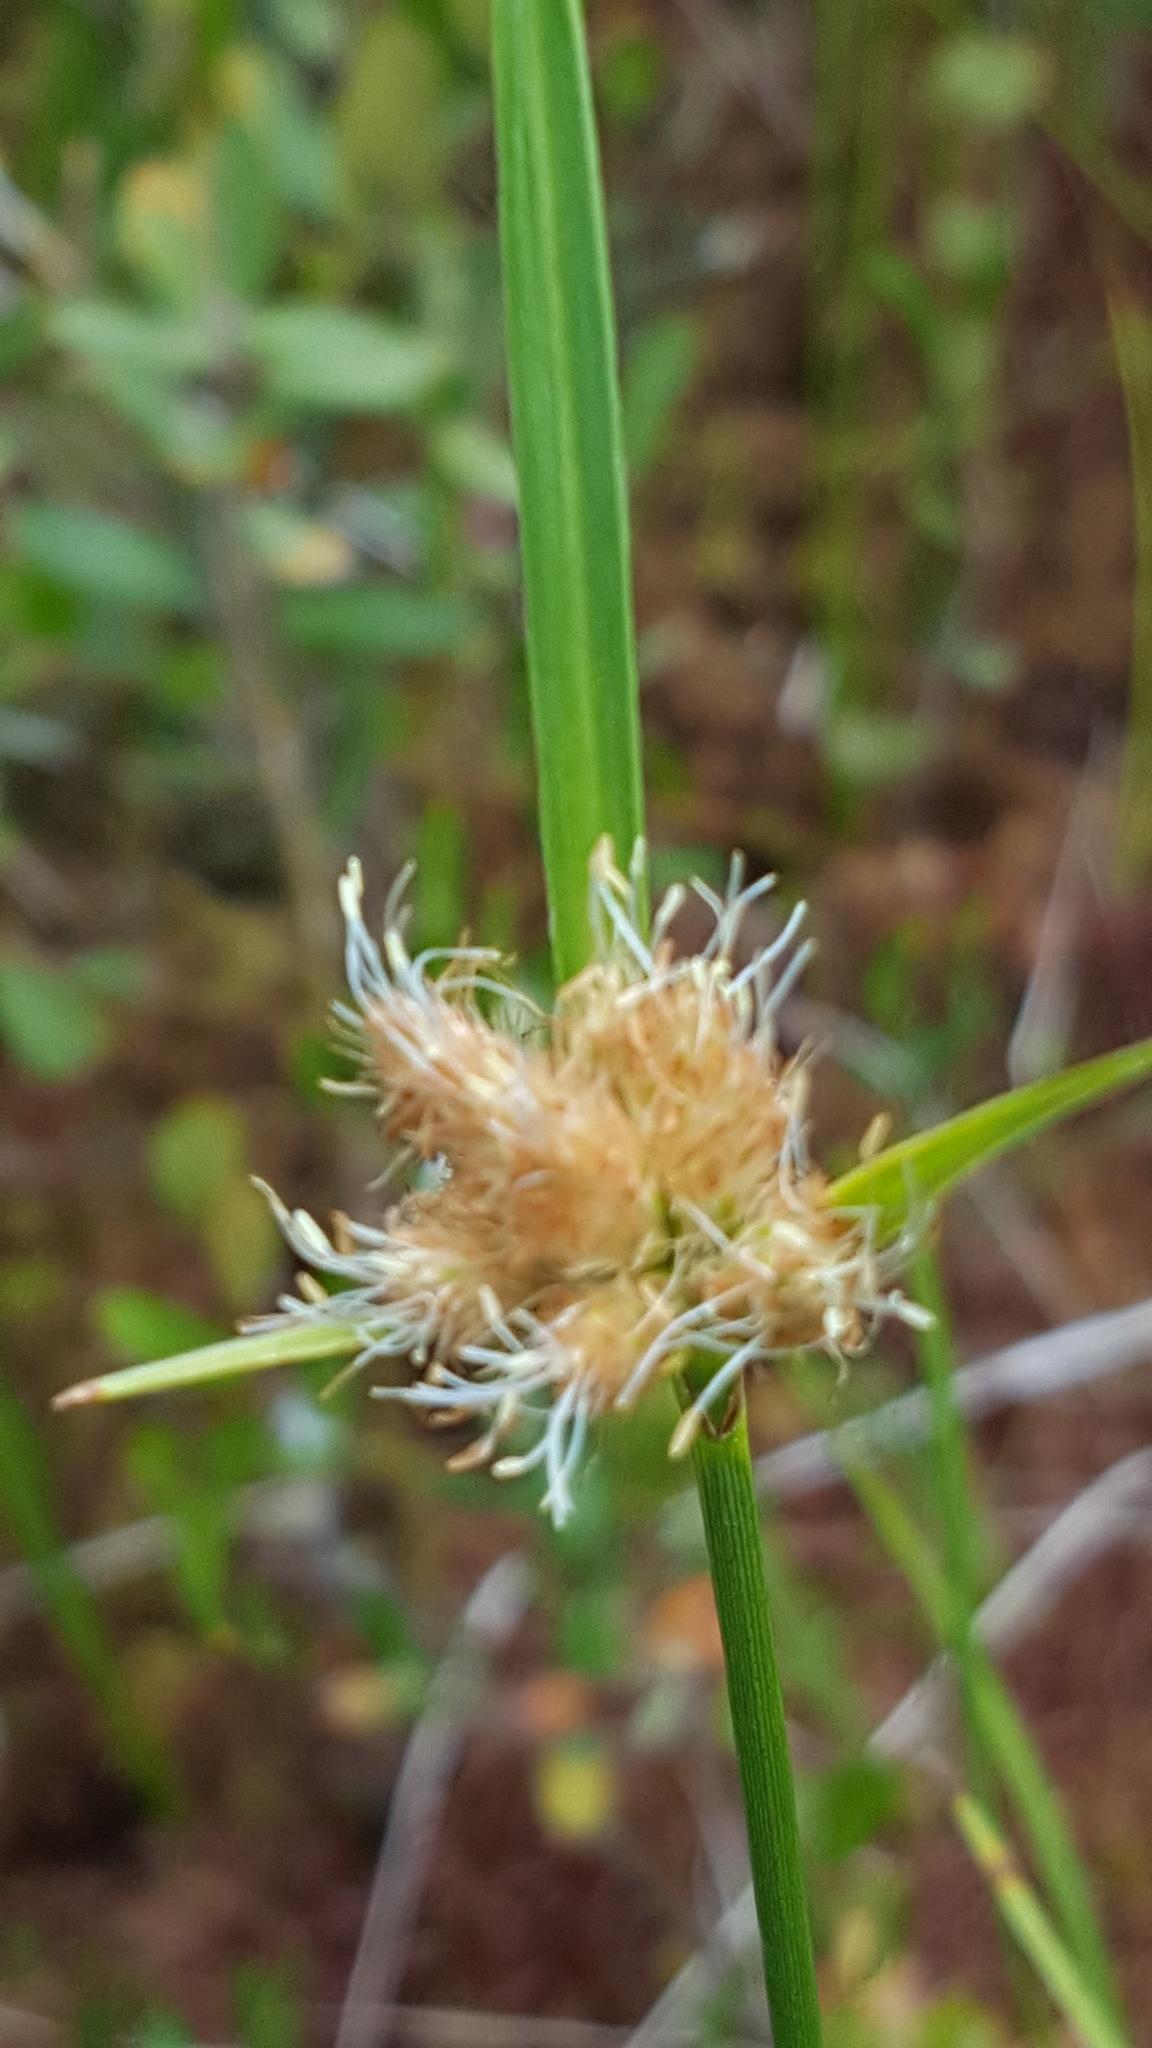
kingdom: Plantae
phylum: Tracheophyta
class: Liliopsida
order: Poales
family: Cyperaceae
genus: Eriophorum
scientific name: Eriophorum virginicum
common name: Tawny cottongrass
